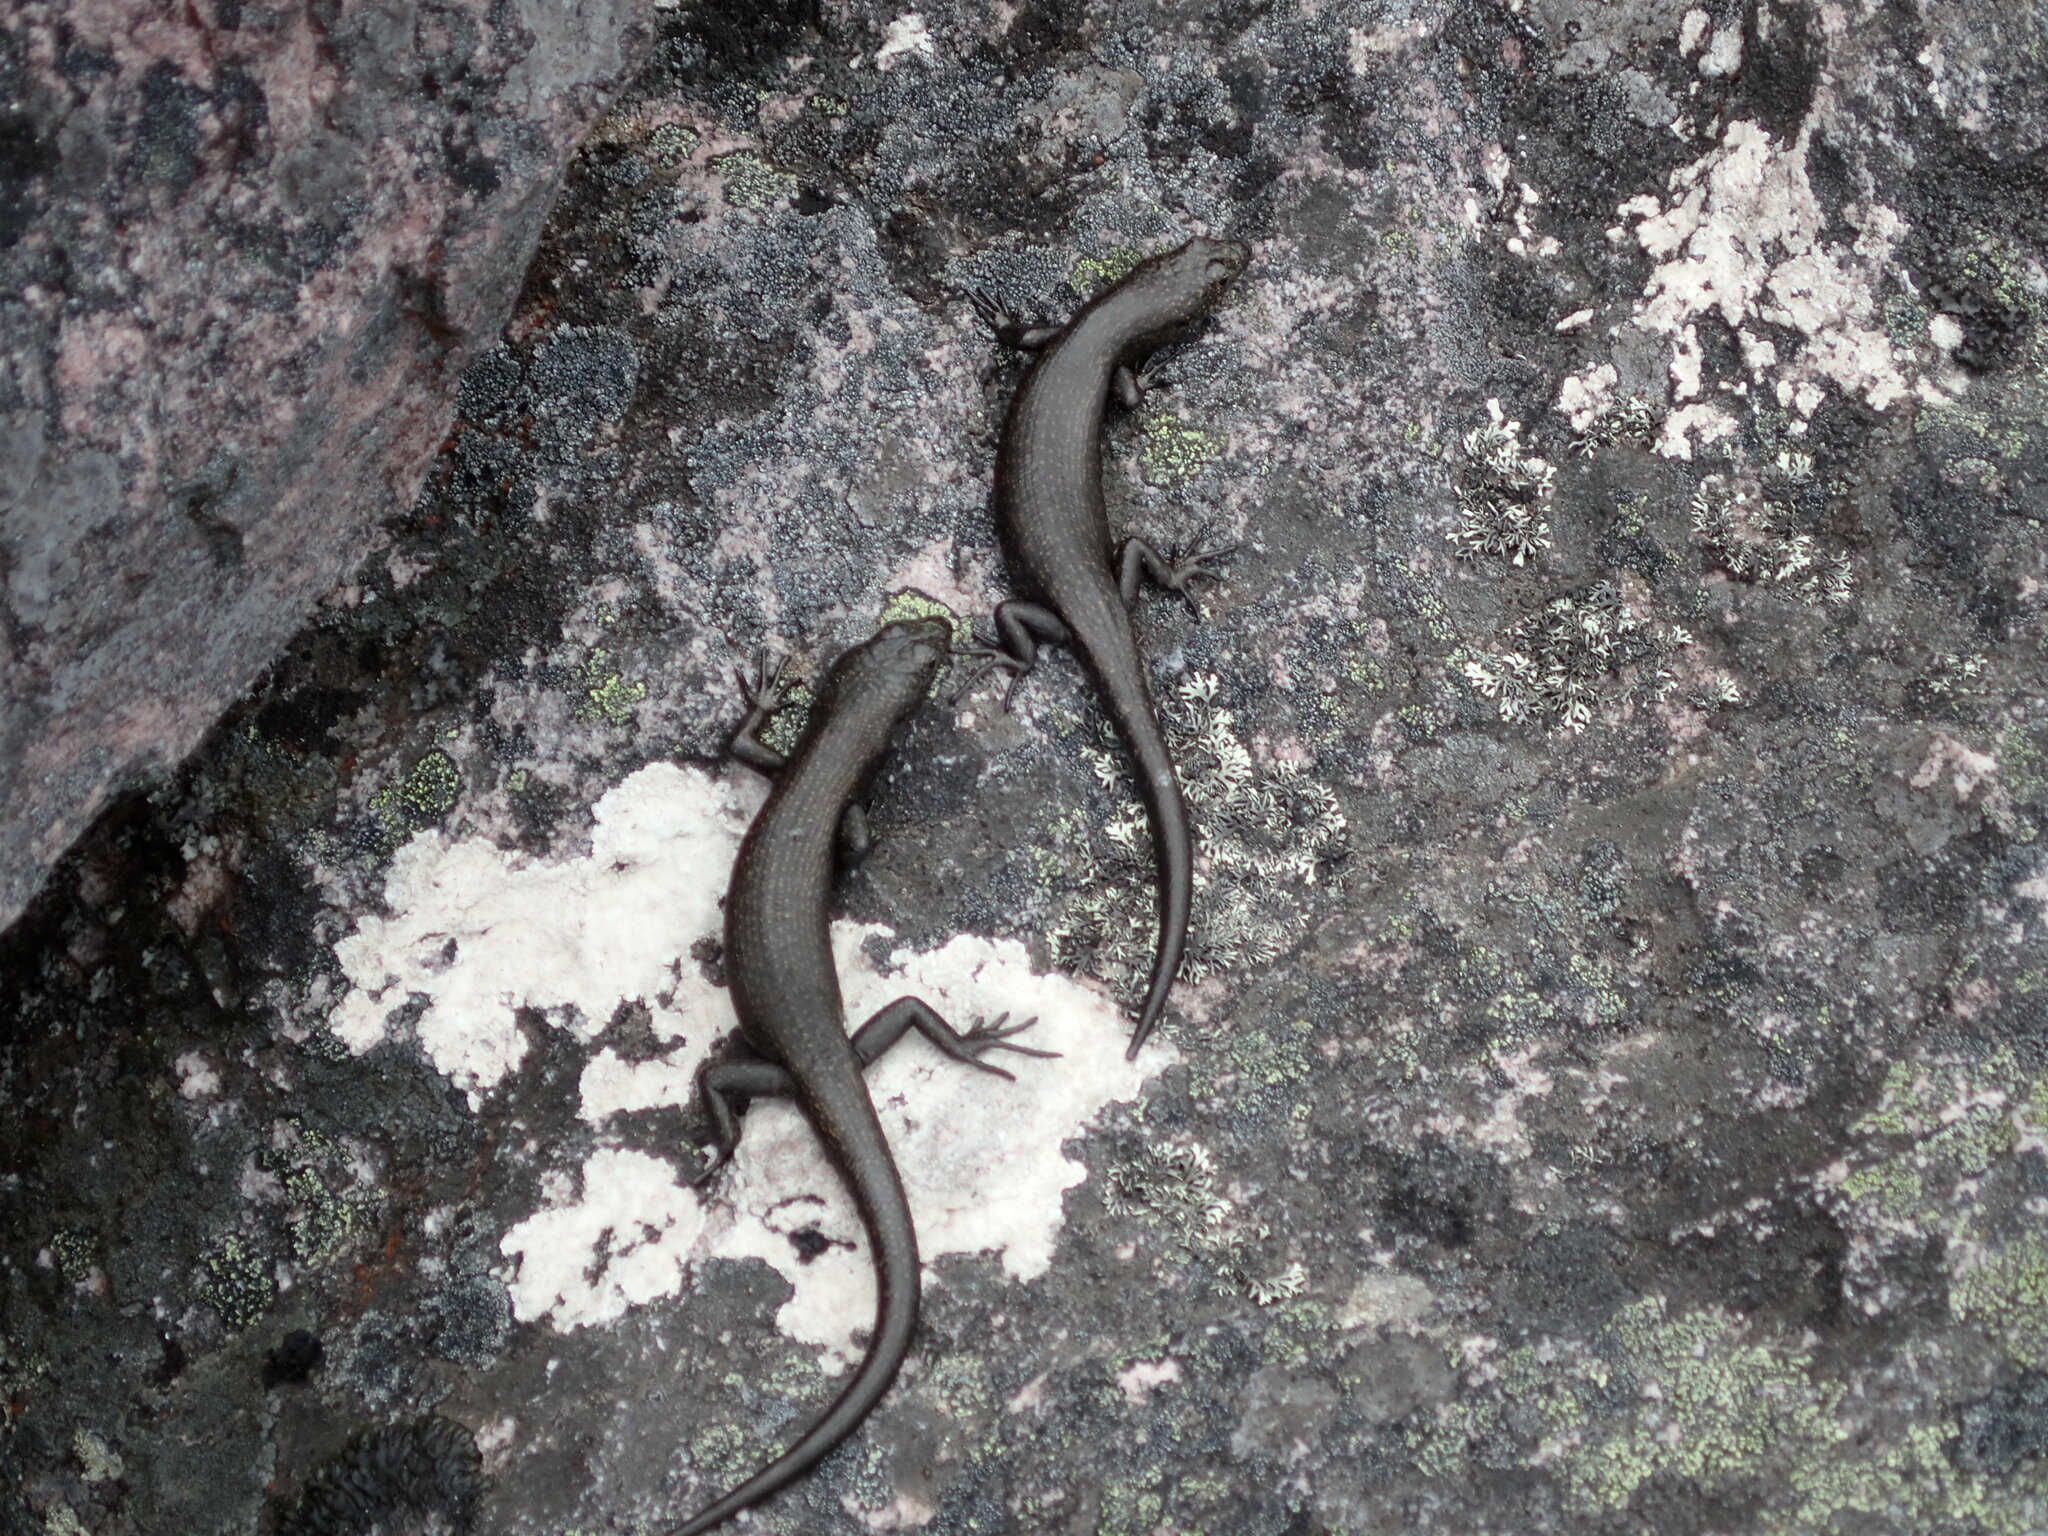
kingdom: Animalia
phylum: Chordata
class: Squamata
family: Scincidae
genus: Carinascincus
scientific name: Carinascincus greeni
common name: Alpine cool-skink
